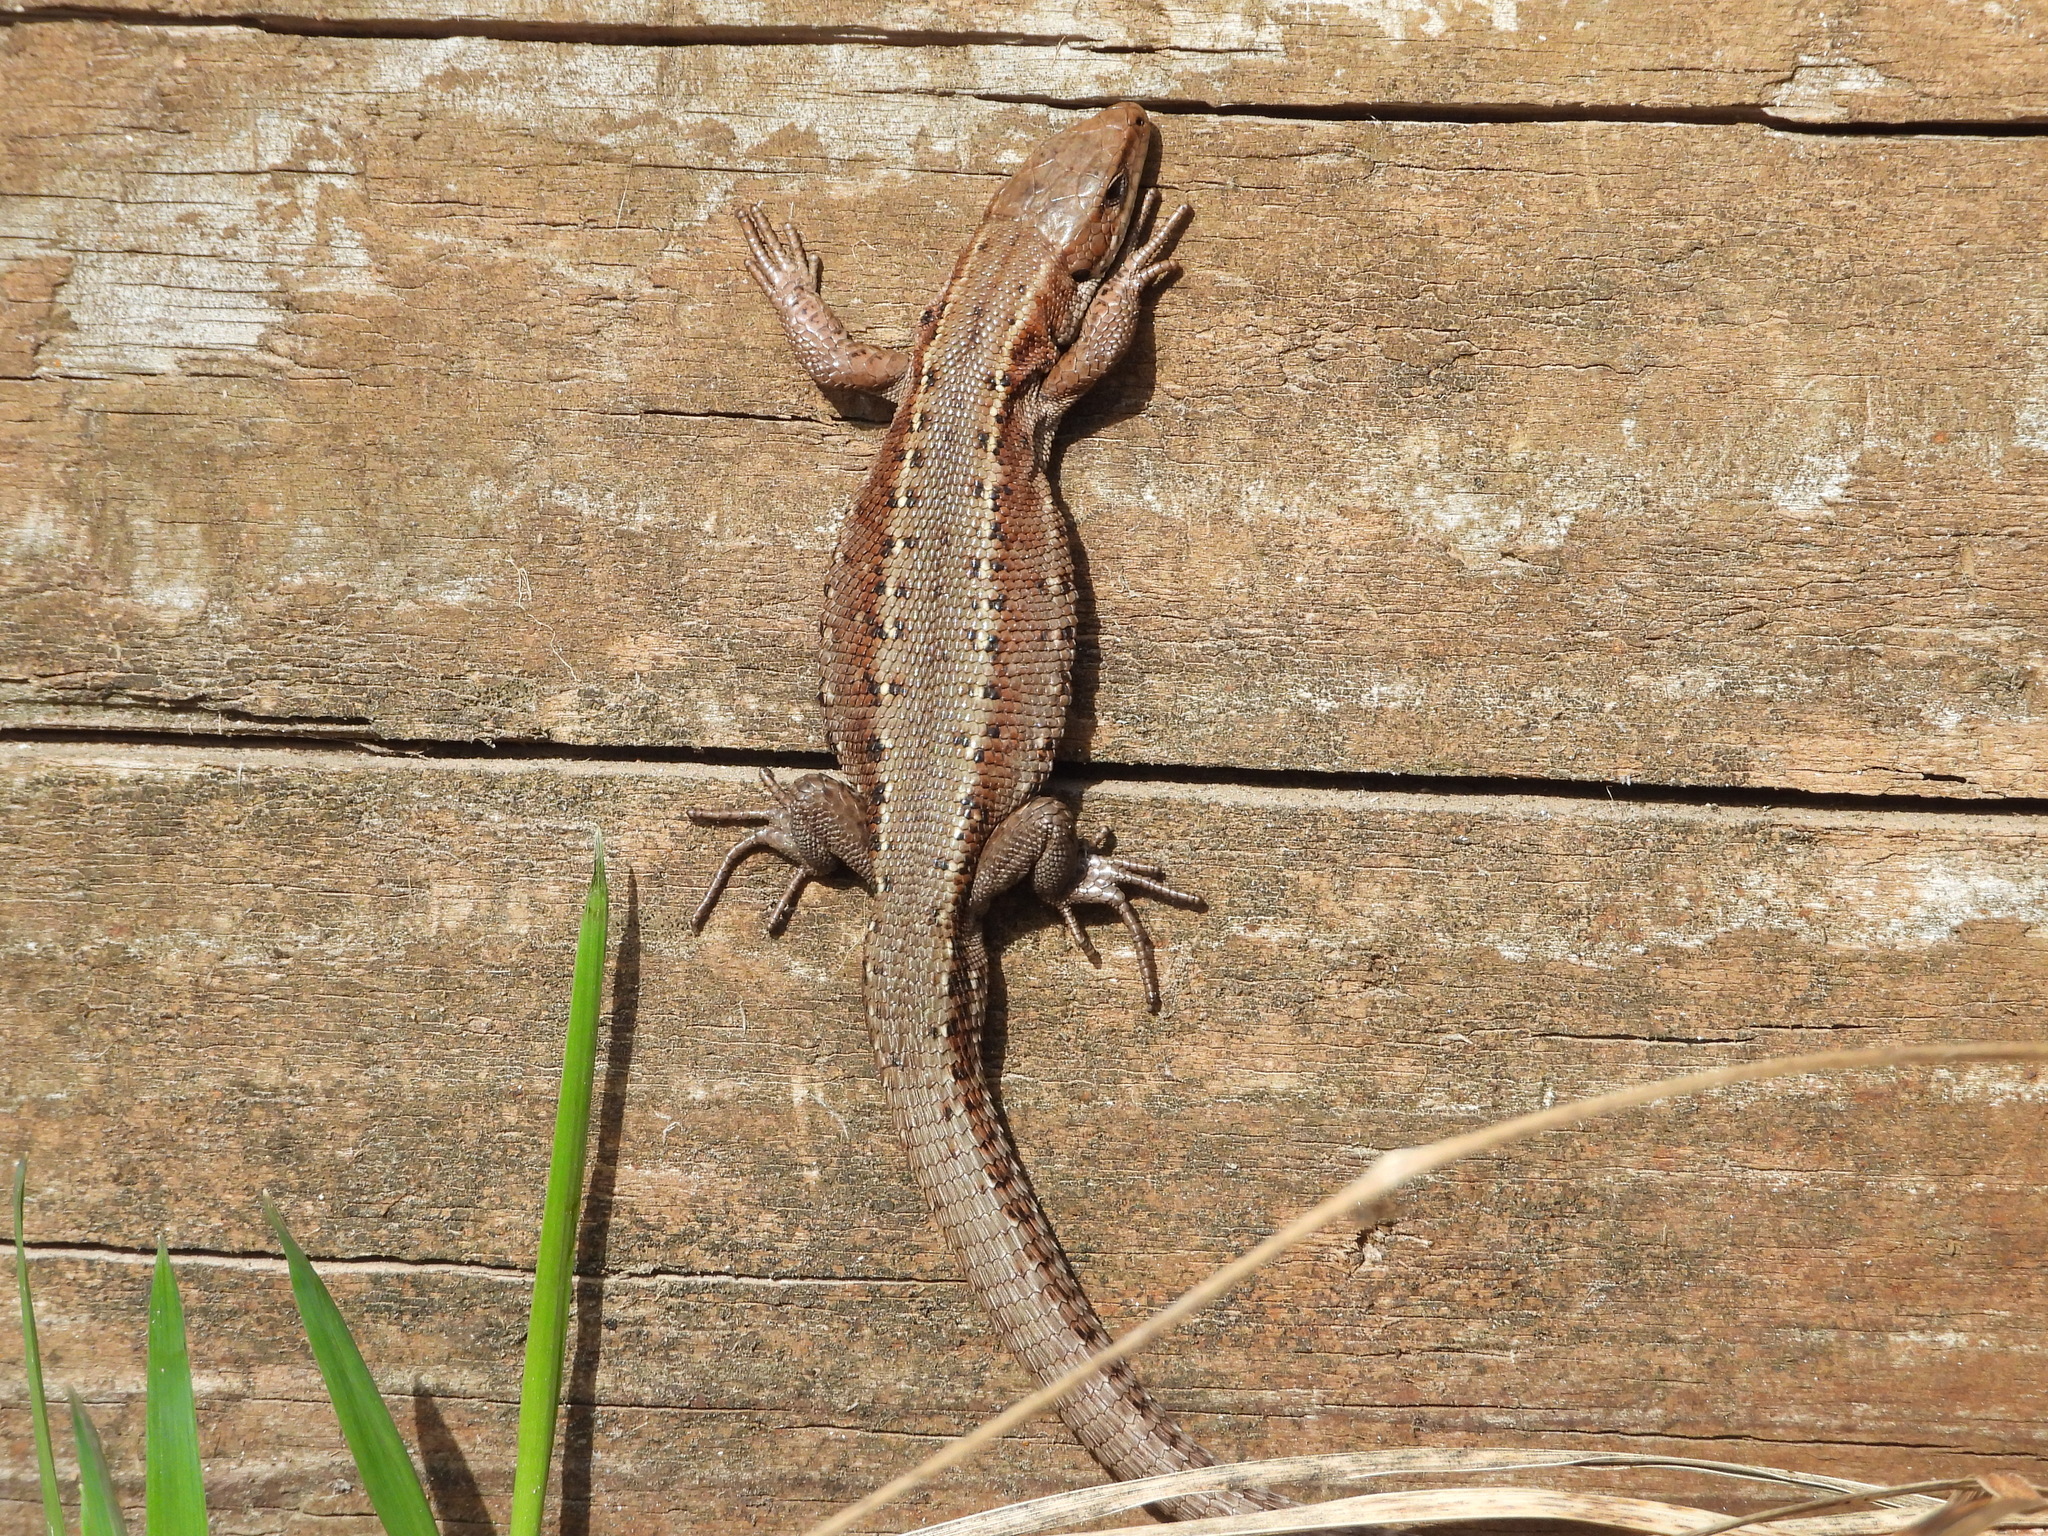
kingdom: Animalia
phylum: Chordata
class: Squamata
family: Lacertidae
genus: Zootoca
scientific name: Zootoca vivipara
